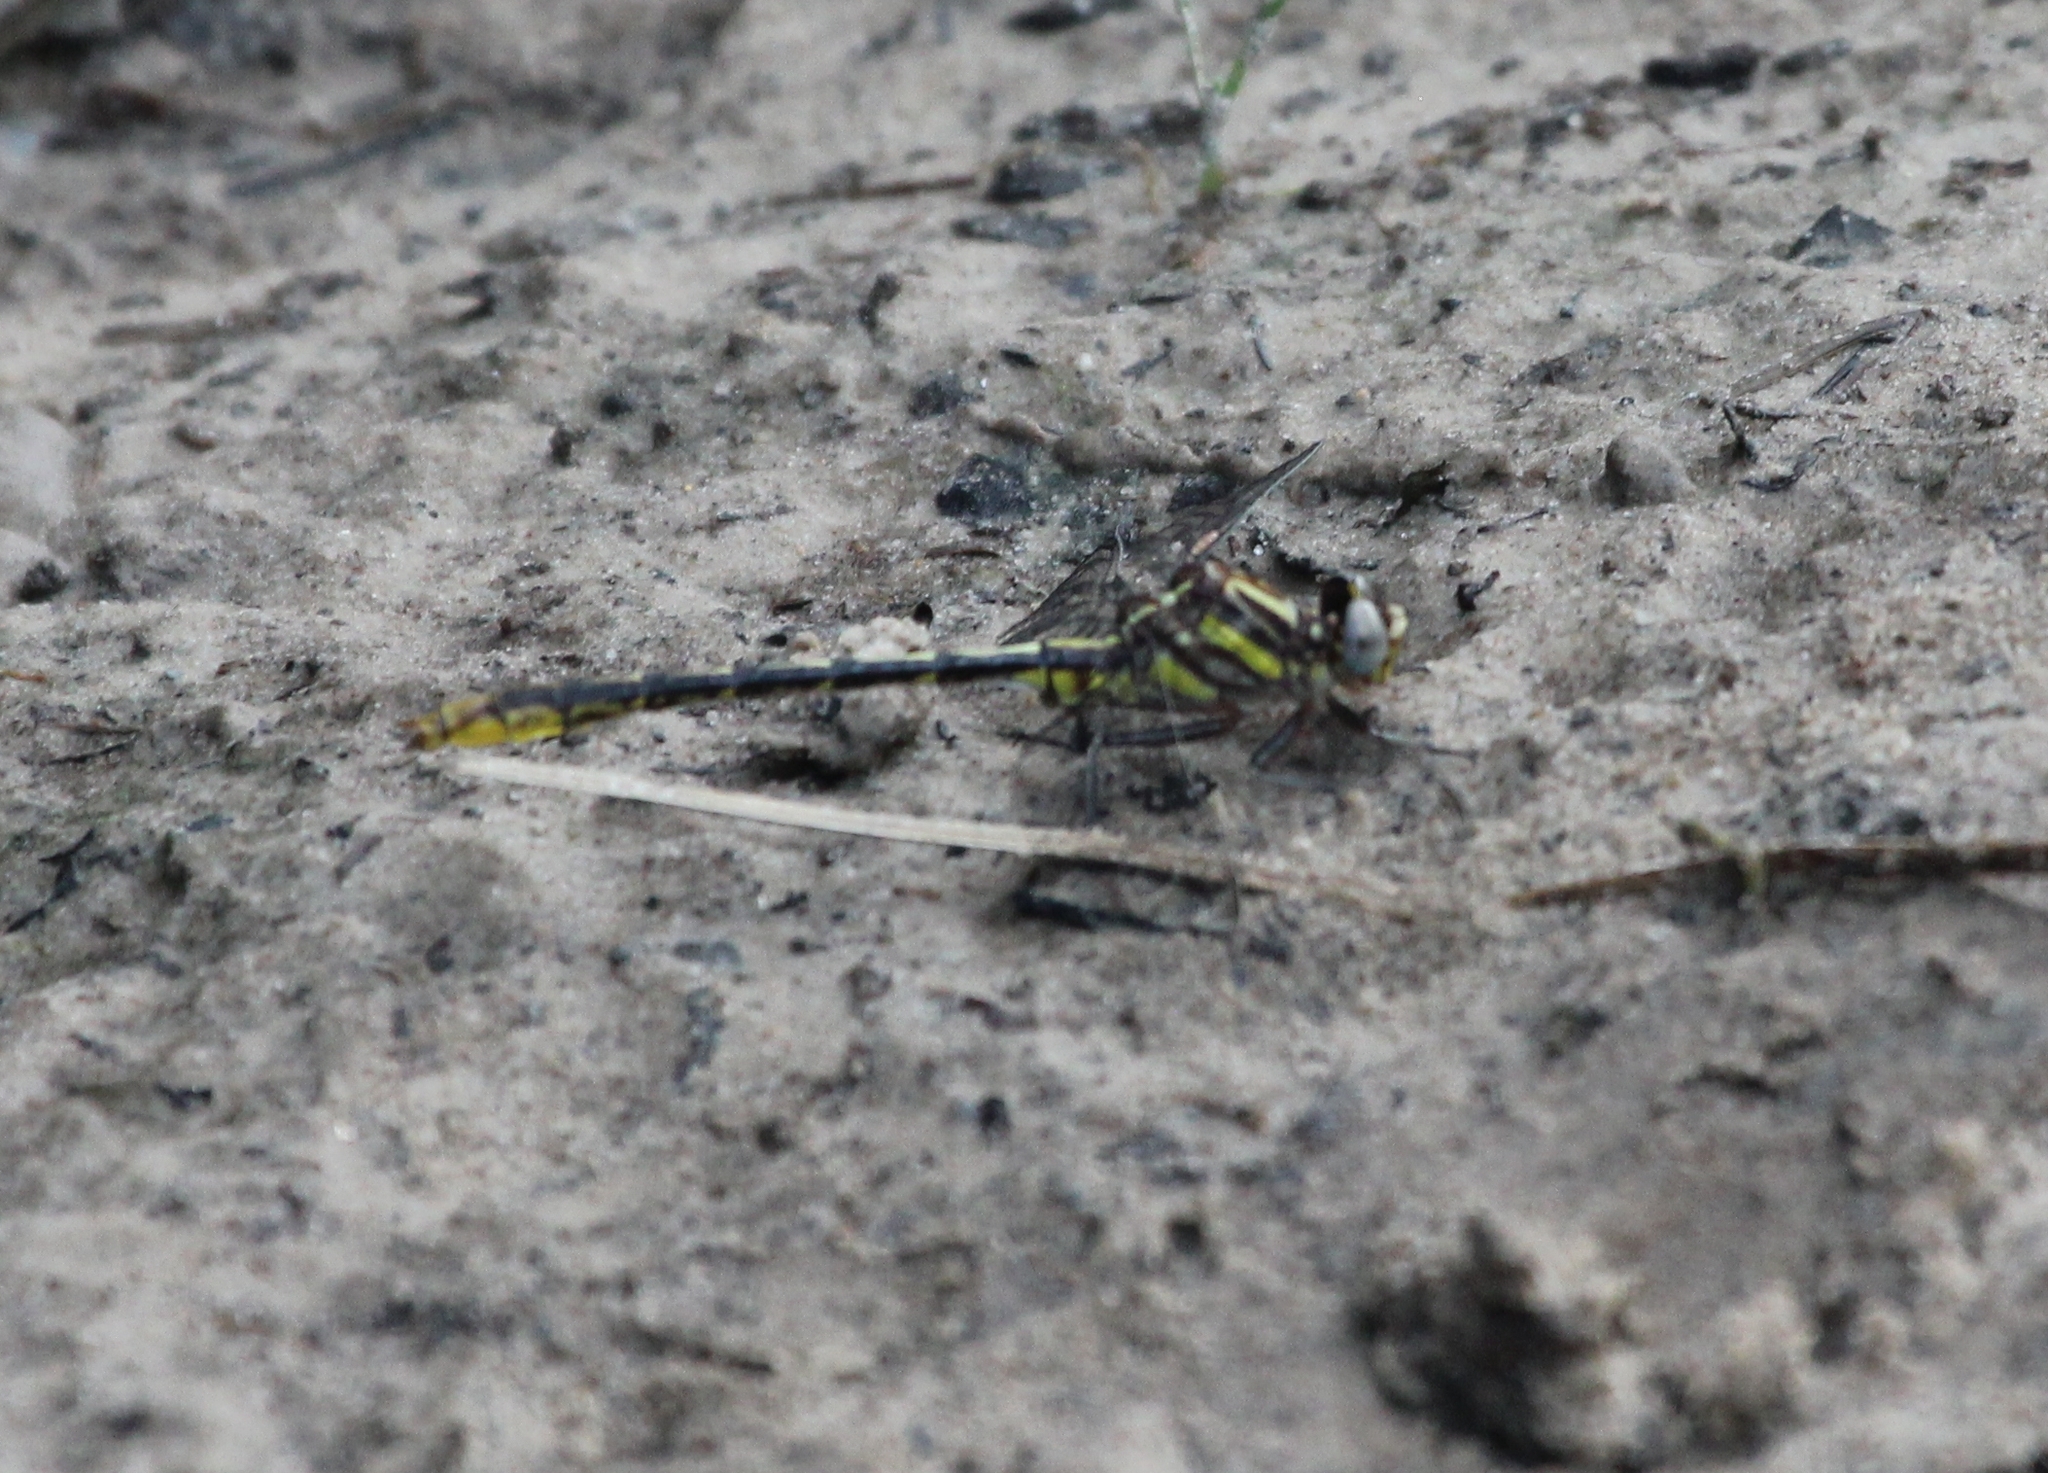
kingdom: Animalia
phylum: Arthropoda
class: Insecta
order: Odonata
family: Gomphidae
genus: Phanogomphus
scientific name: Phanogomphus exilis
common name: Lancet clubtail
